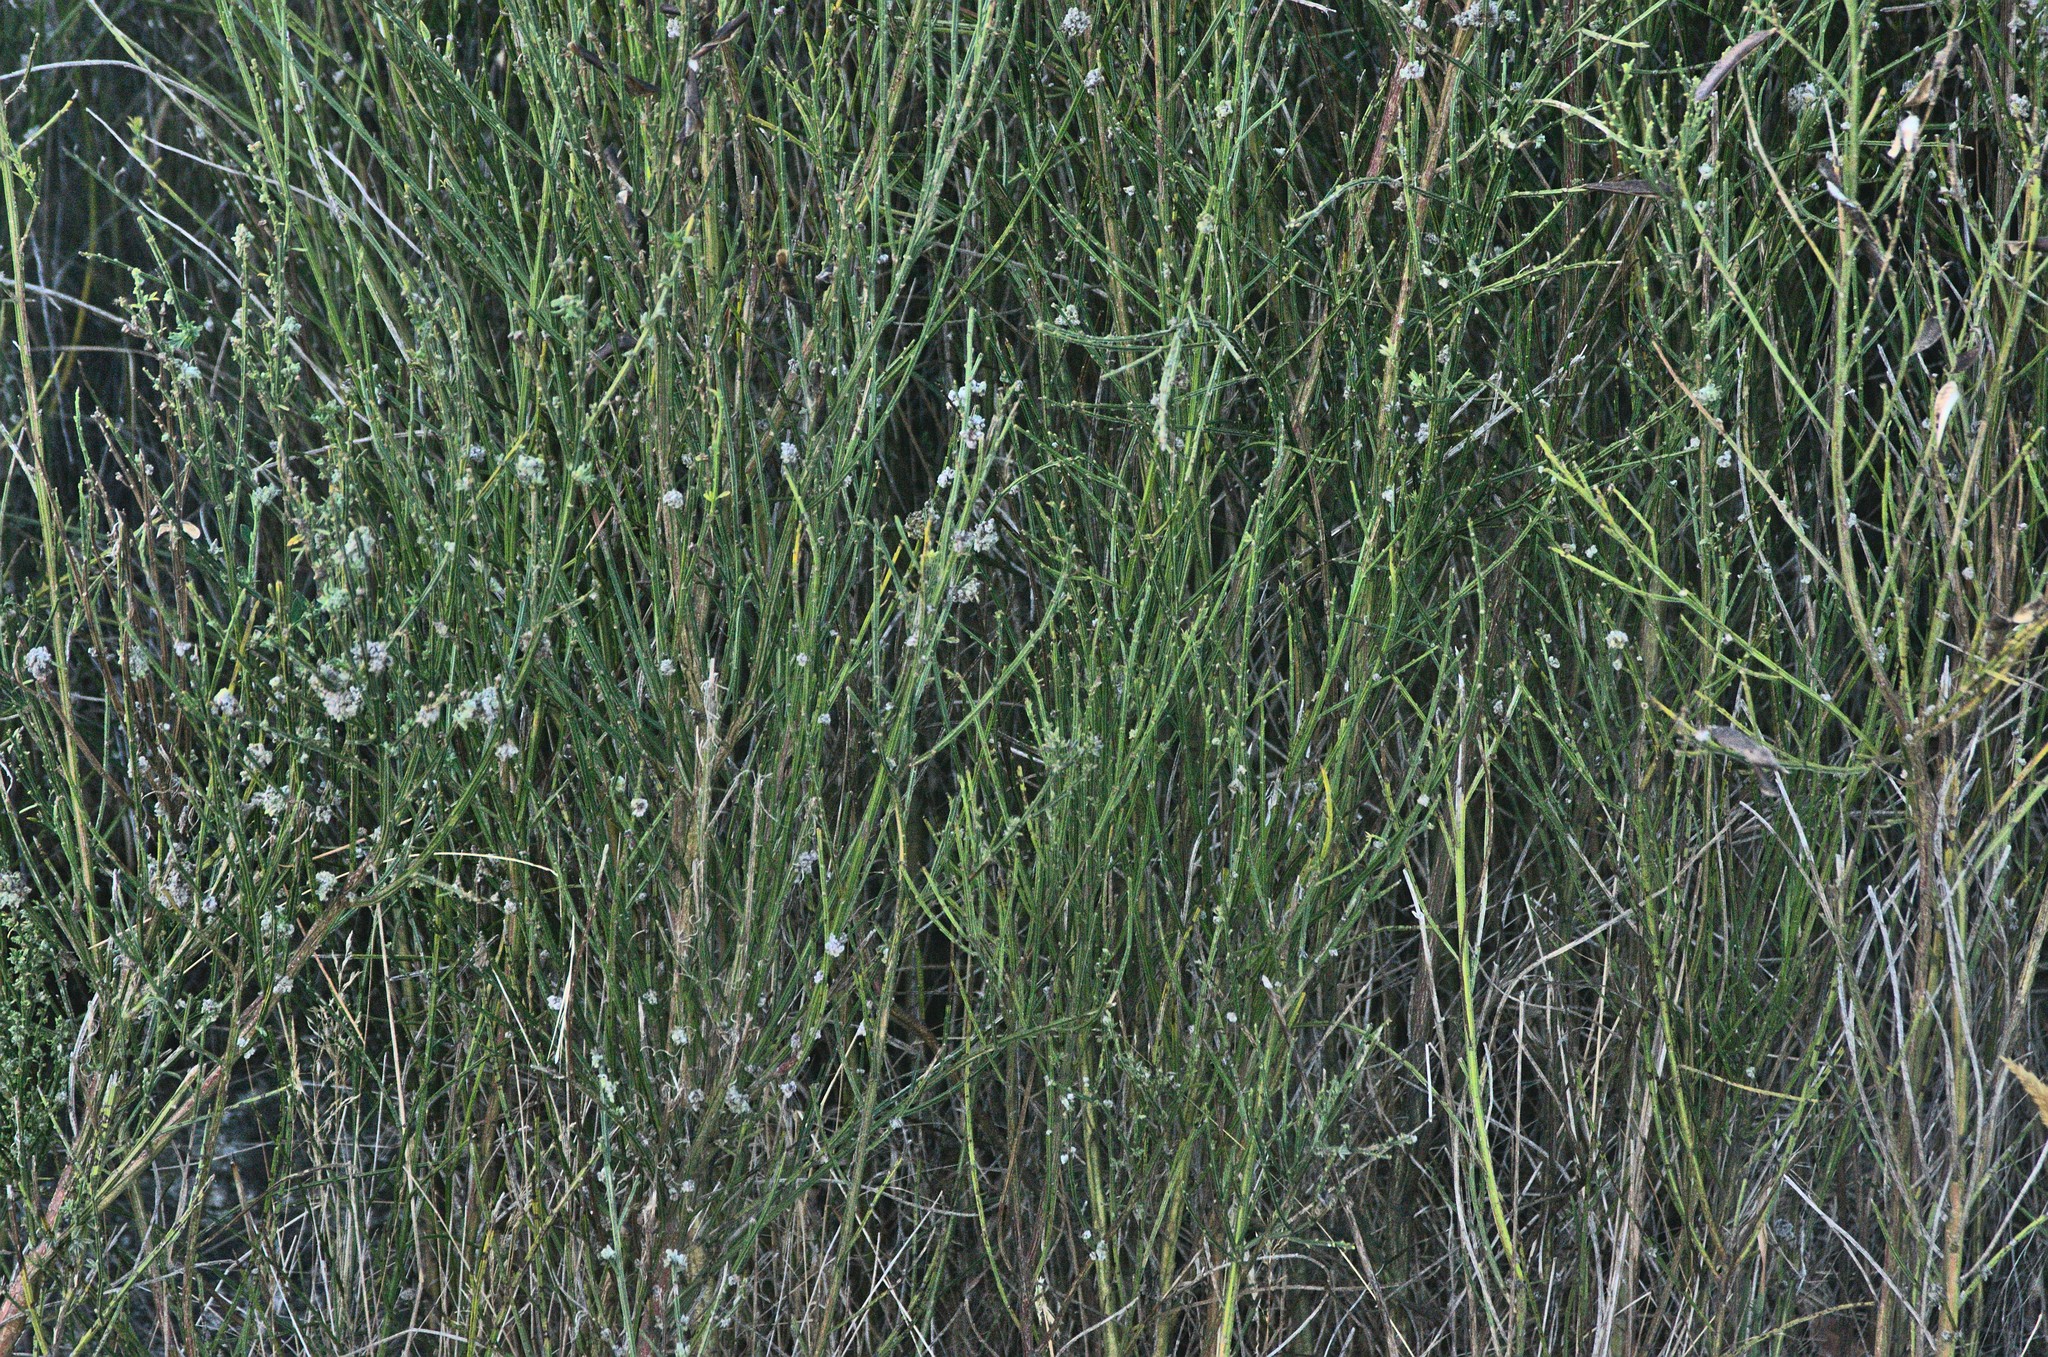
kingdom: Animalia
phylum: Arthropoda
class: Arachnida
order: Trombidiformes
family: Eriophyidae
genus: Aceria
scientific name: Aceria genistae
